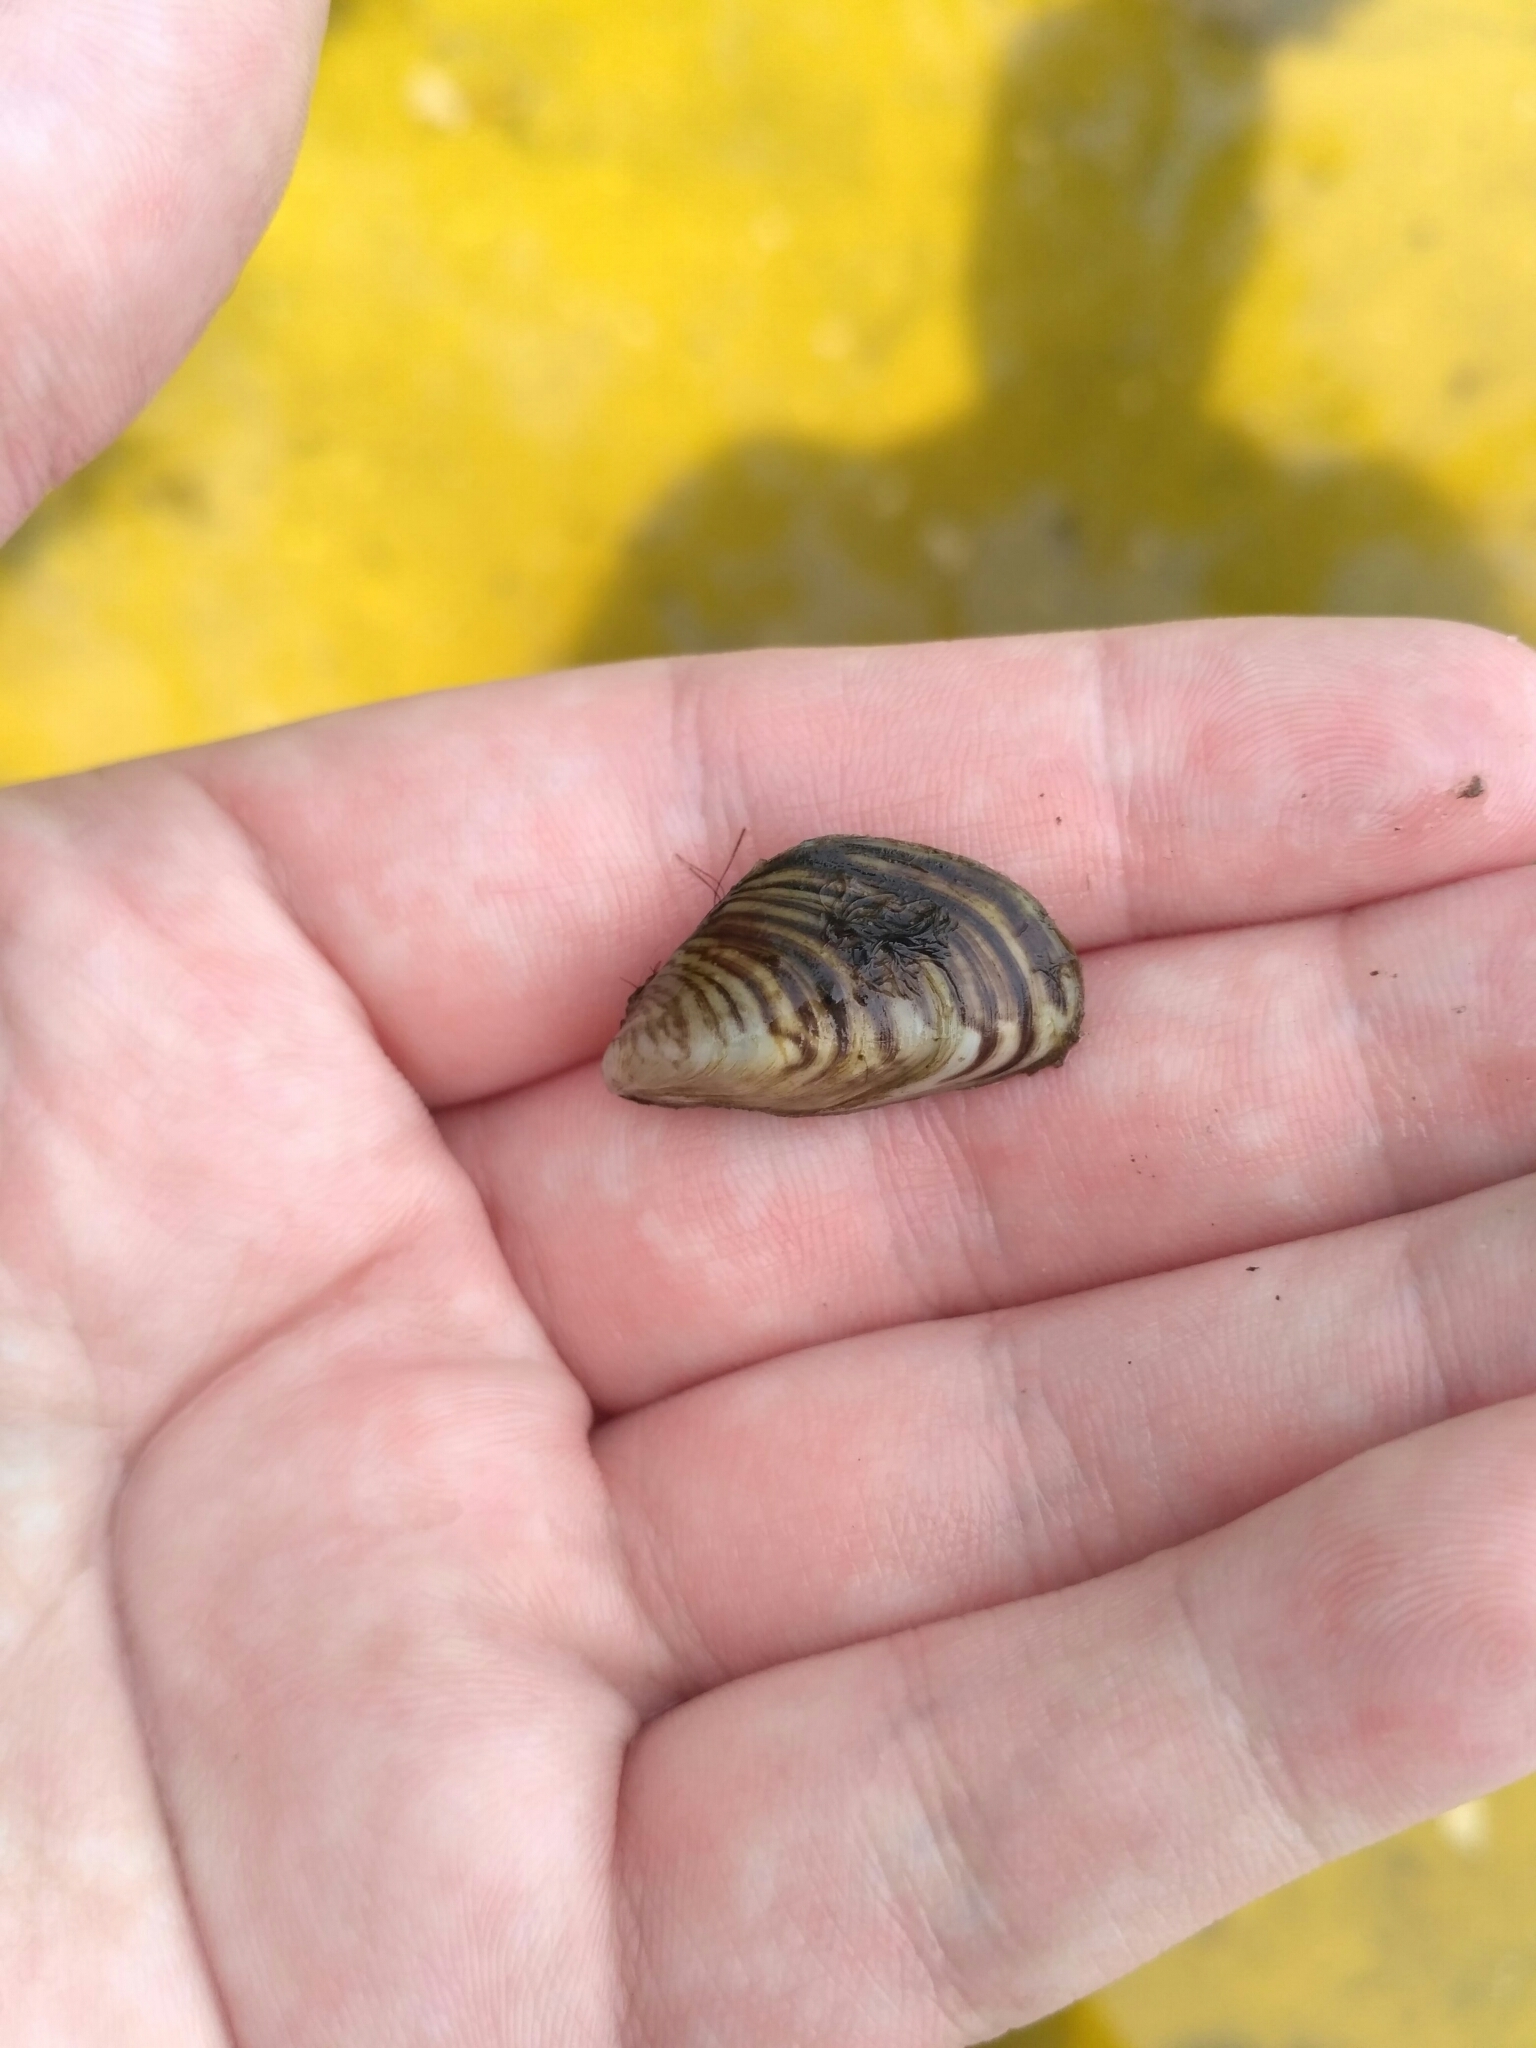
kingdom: Animalia
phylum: Mollusca
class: Bivalvia
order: Myida
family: Dreissenidae
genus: Dreissena
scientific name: Dreissena bugensis
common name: Quagga mussel
